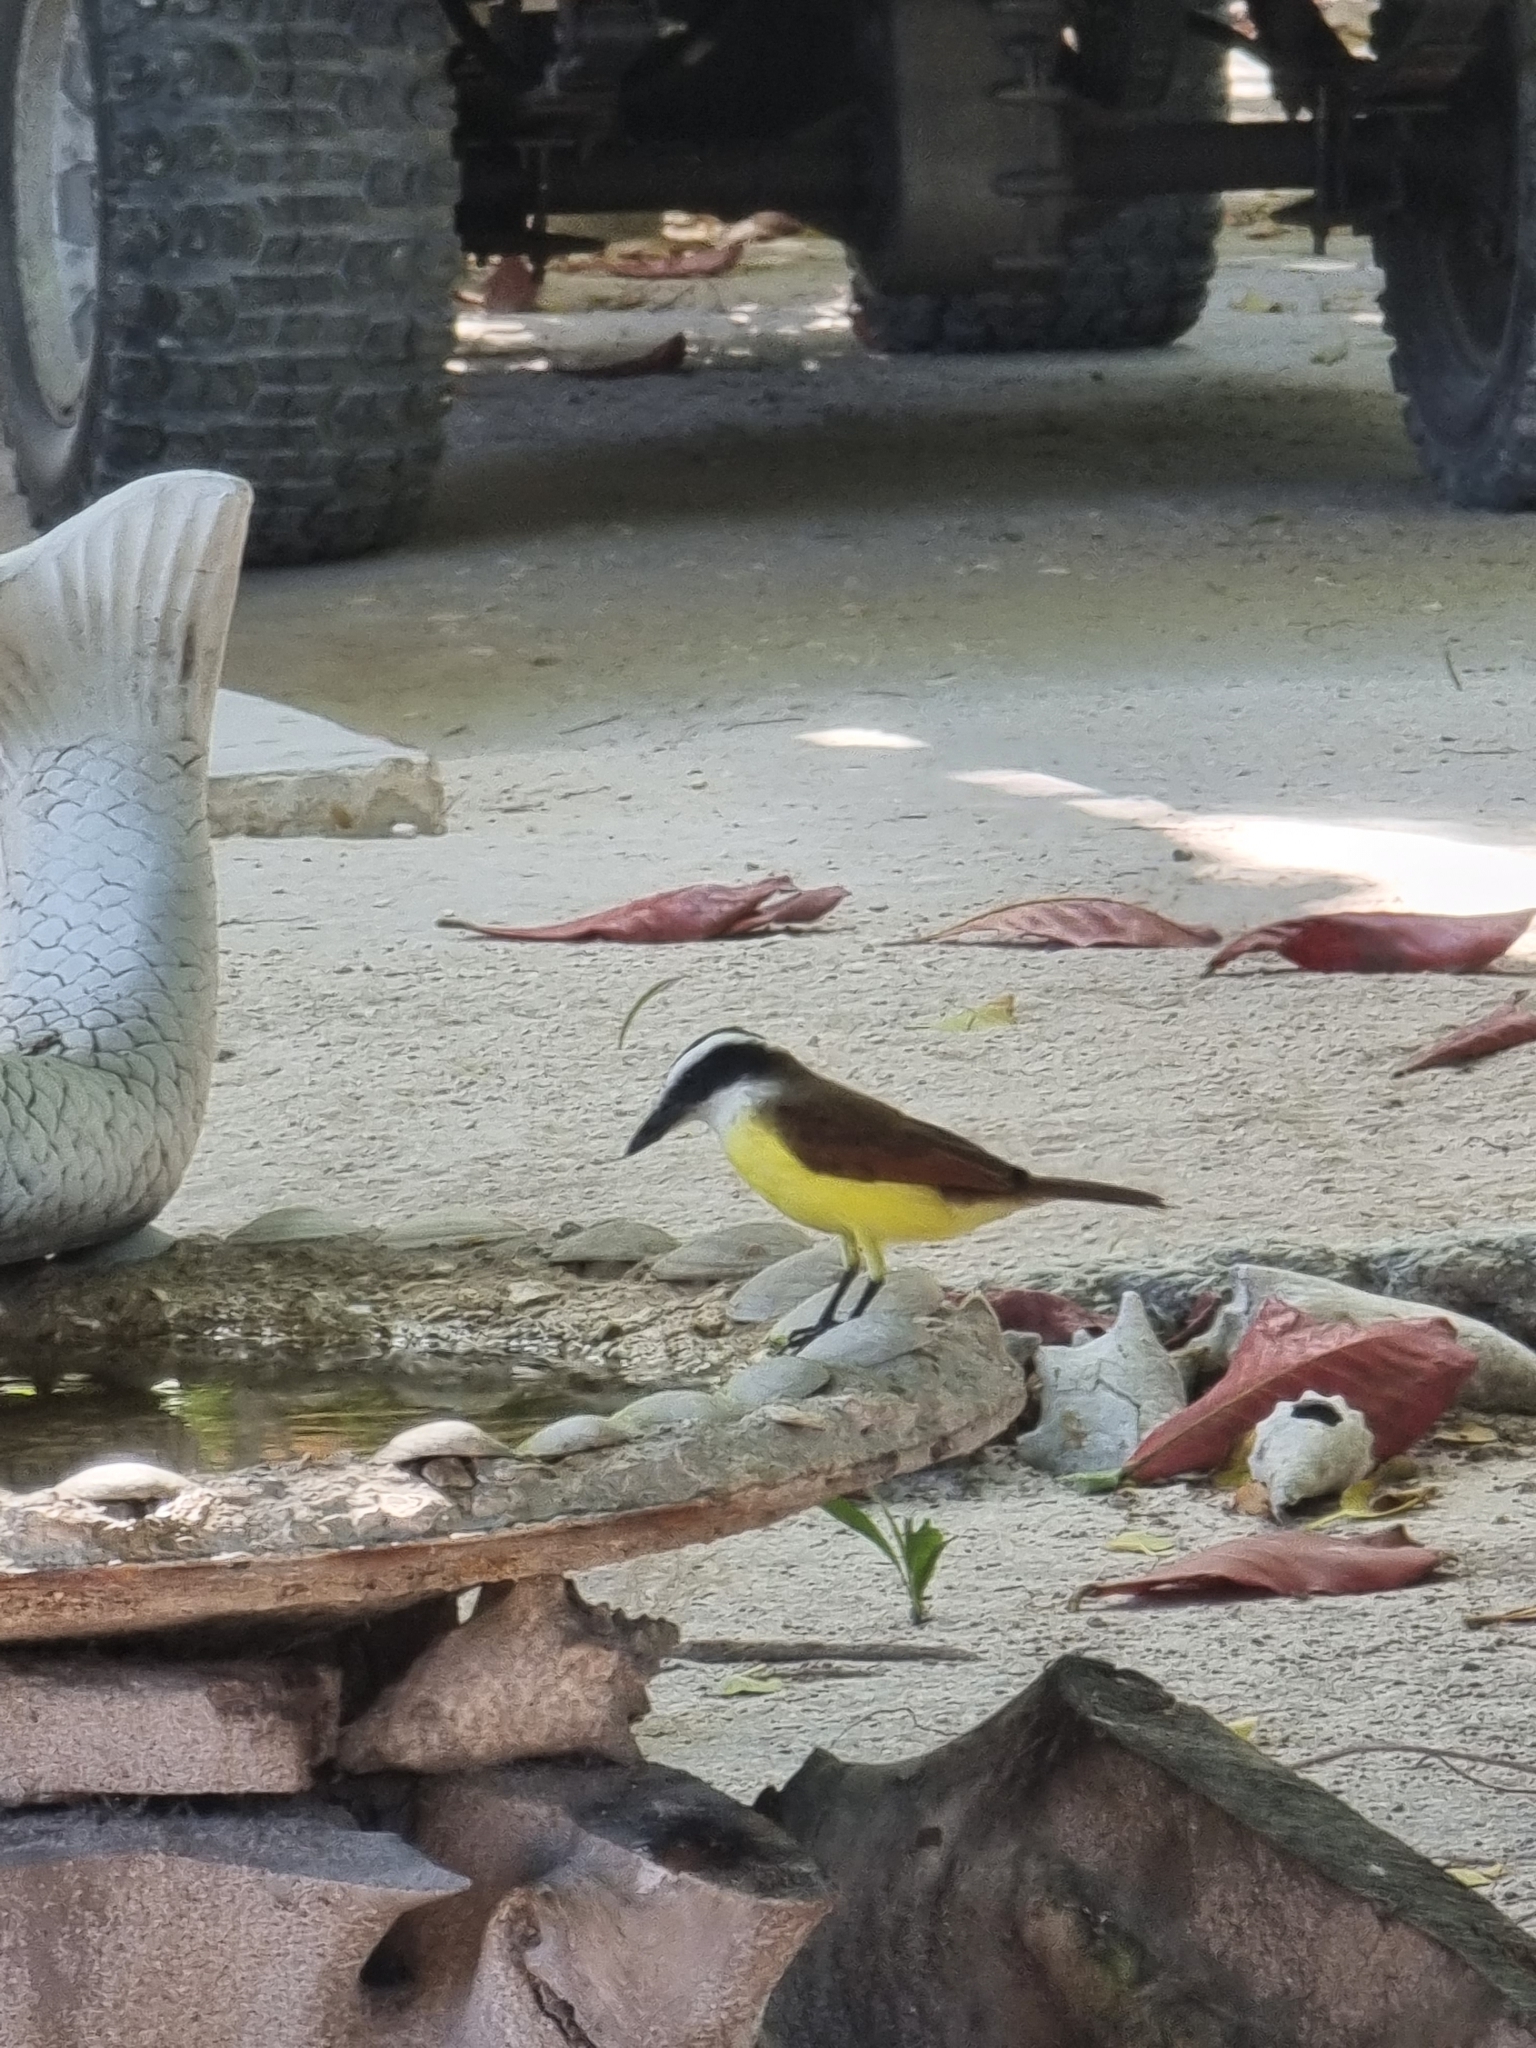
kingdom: Animalia
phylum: Chordata
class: Aves
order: Passeriformes
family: Tyrannidae
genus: Pitangus
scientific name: Pitangus sulphuratus
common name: Great kiskadee
